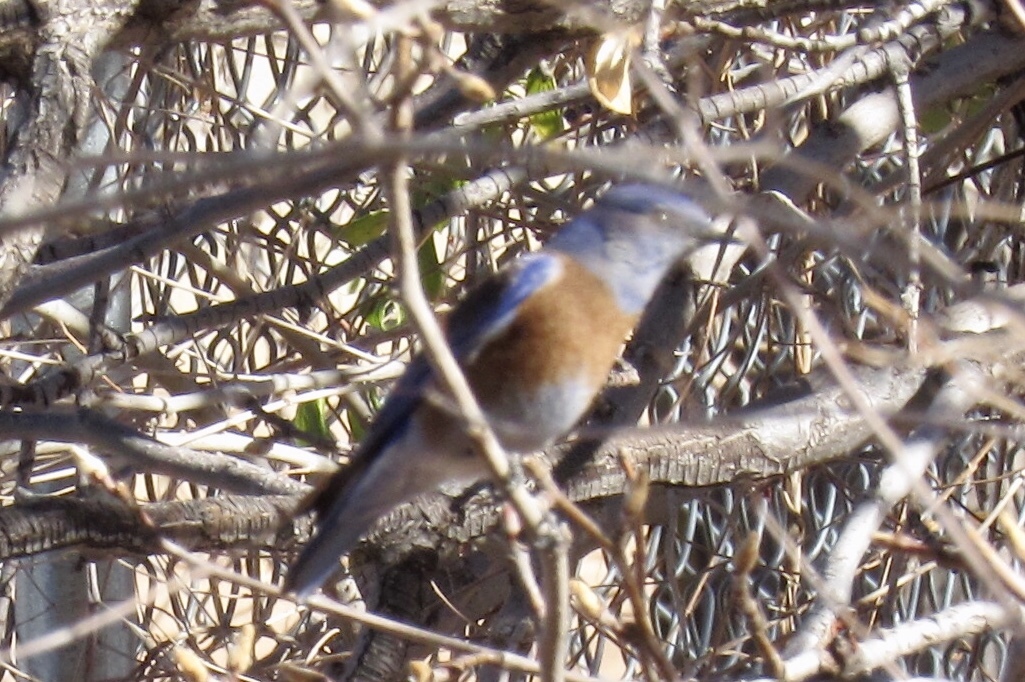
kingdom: Animalia
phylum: Chordata
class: Aves
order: Passeriformes
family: Turdidae
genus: Sialia
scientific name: Sialia mexicana
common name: Western bluebird
